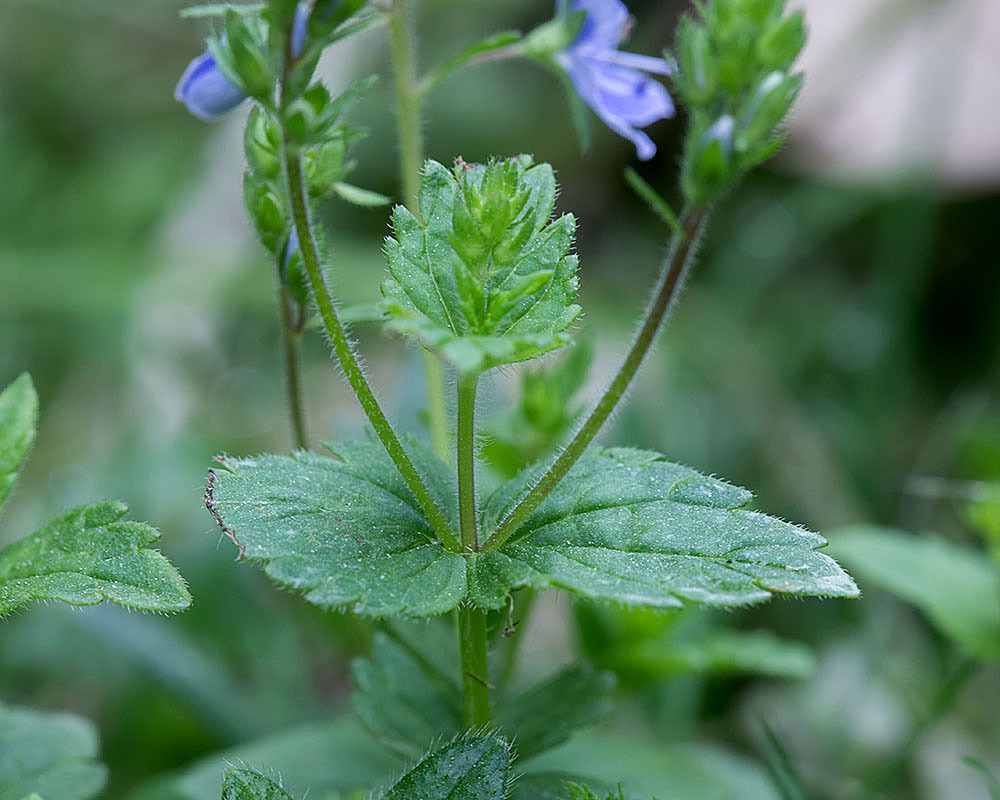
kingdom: Plantae
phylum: Tracheophyta
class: Magnoliopsida
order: Lamiales
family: Plantaginaceae
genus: Veronica
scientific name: Veronica chamaedrys
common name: Germander speedwell
